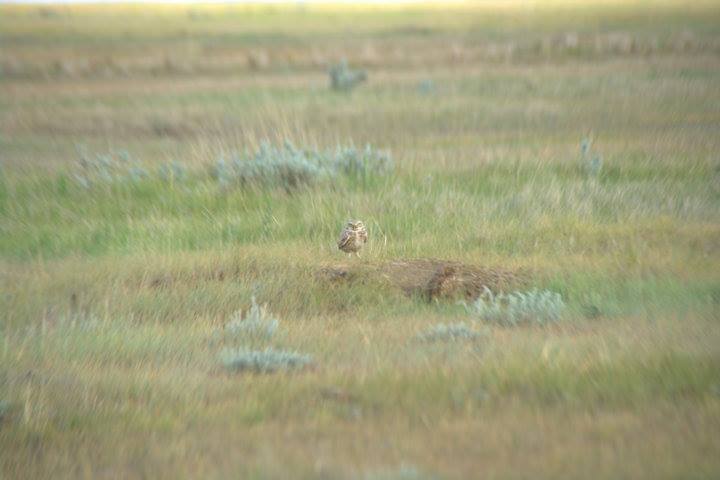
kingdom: Animalia
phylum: Chordata
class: Aves
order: Strigiformes
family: Strigidae
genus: Athene
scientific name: Athene cunicularia
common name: Burrowing owl
